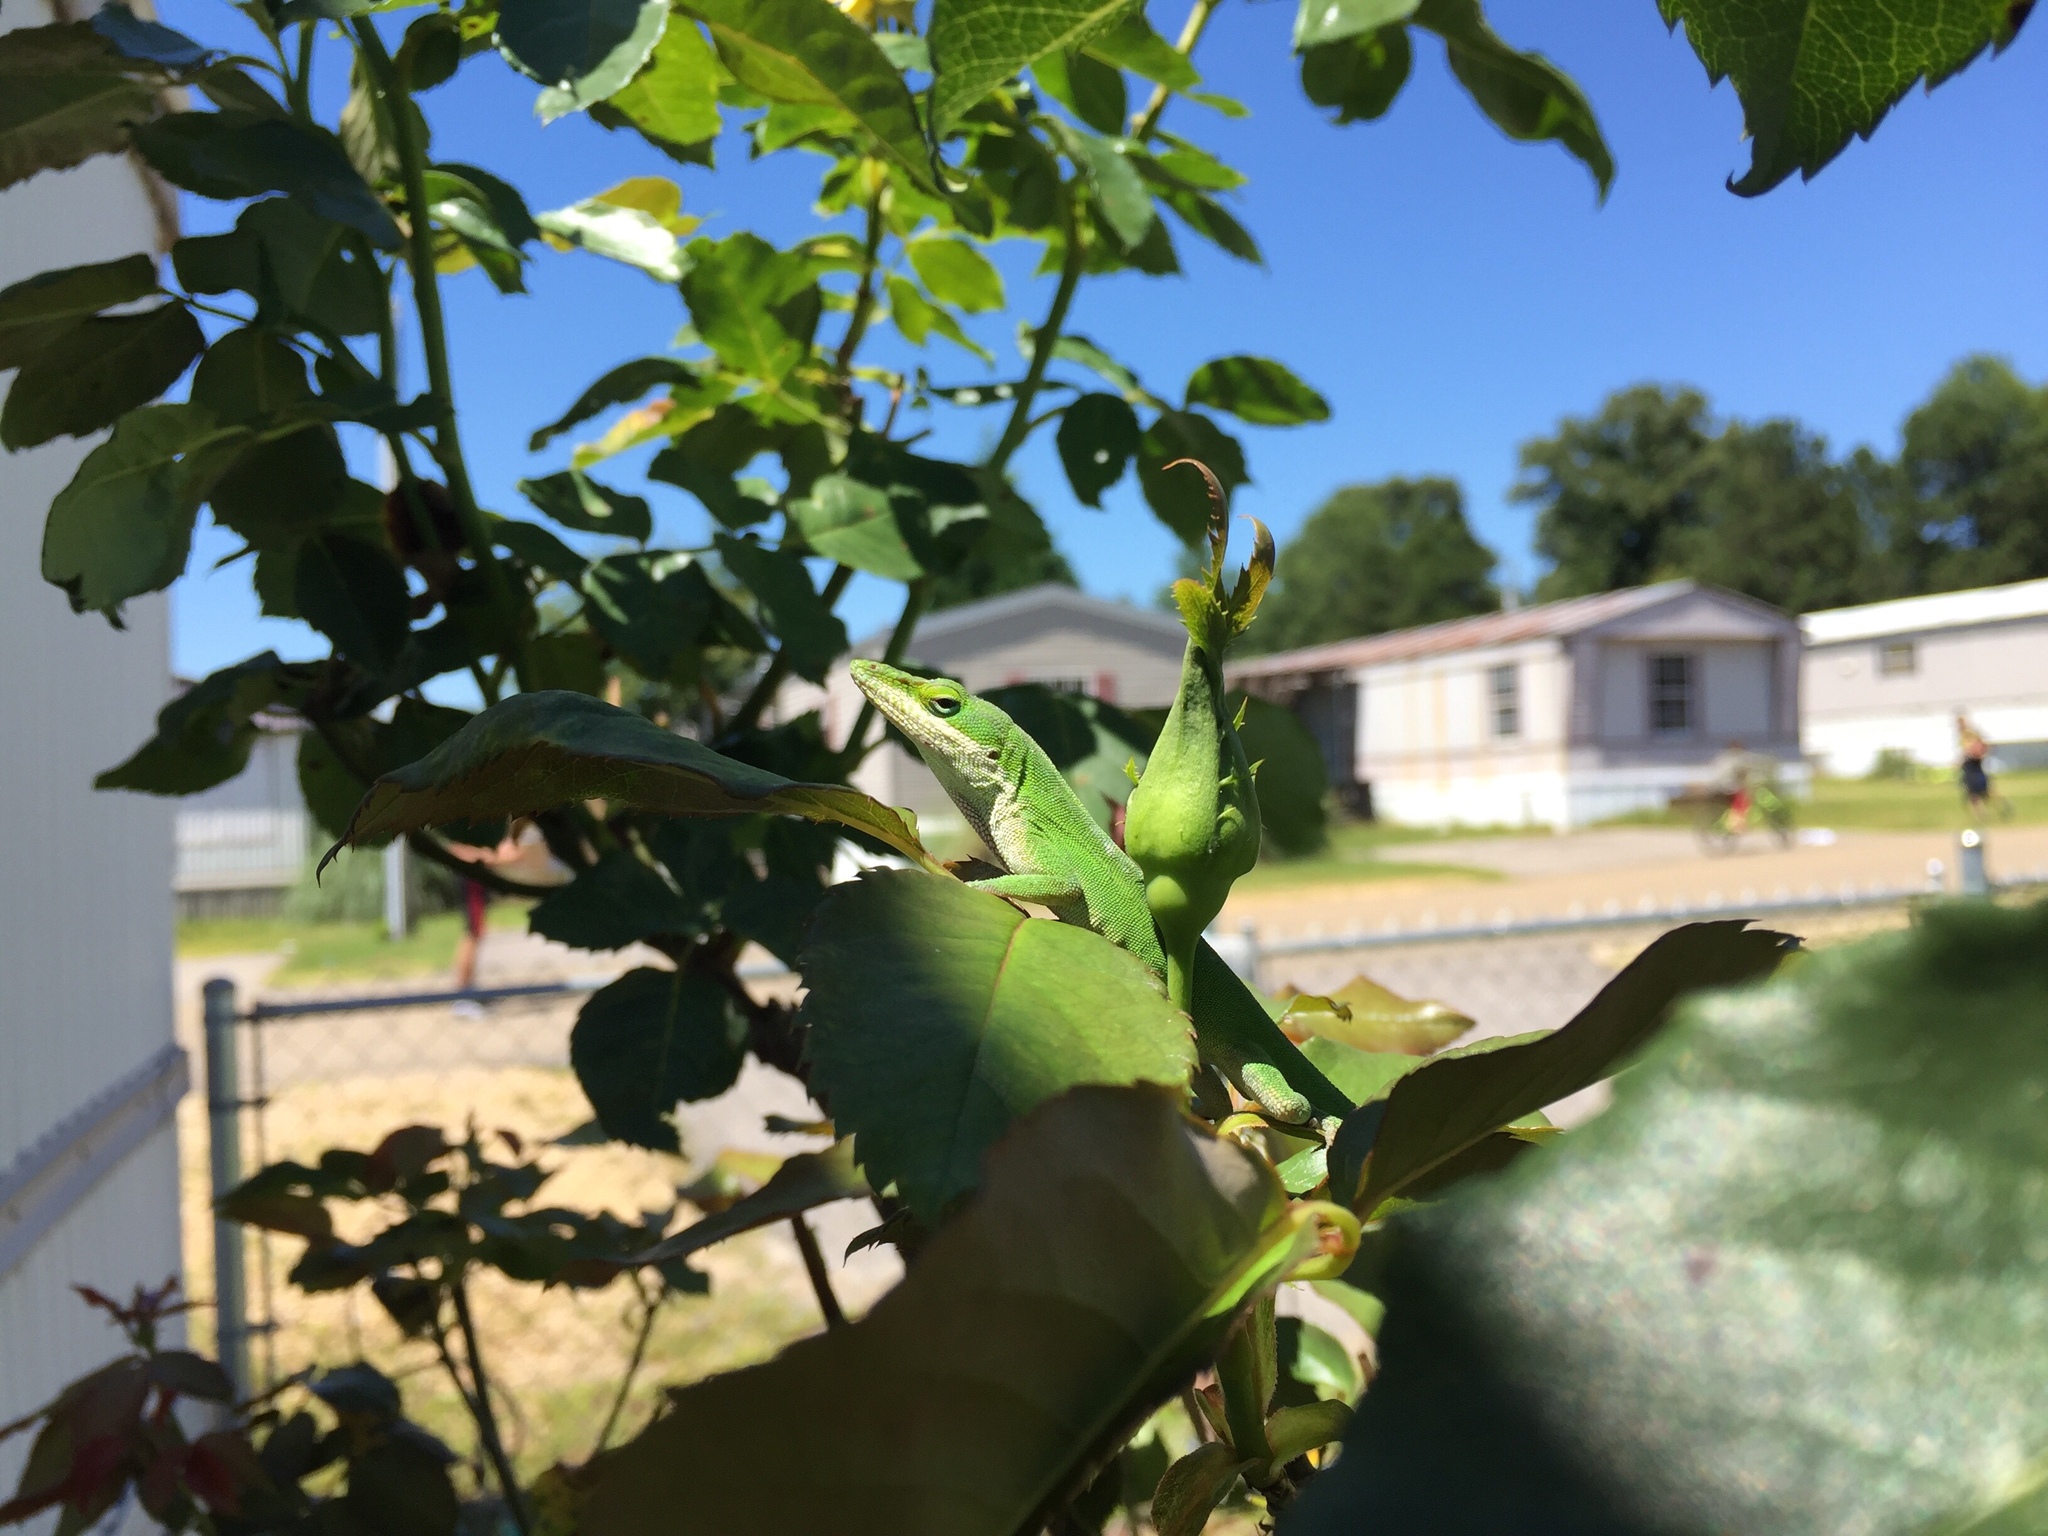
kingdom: Animalia
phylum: Chordata
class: Squamata
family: Dactyloidae
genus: Anolis
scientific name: Anolis carolinensis
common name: Green anole
